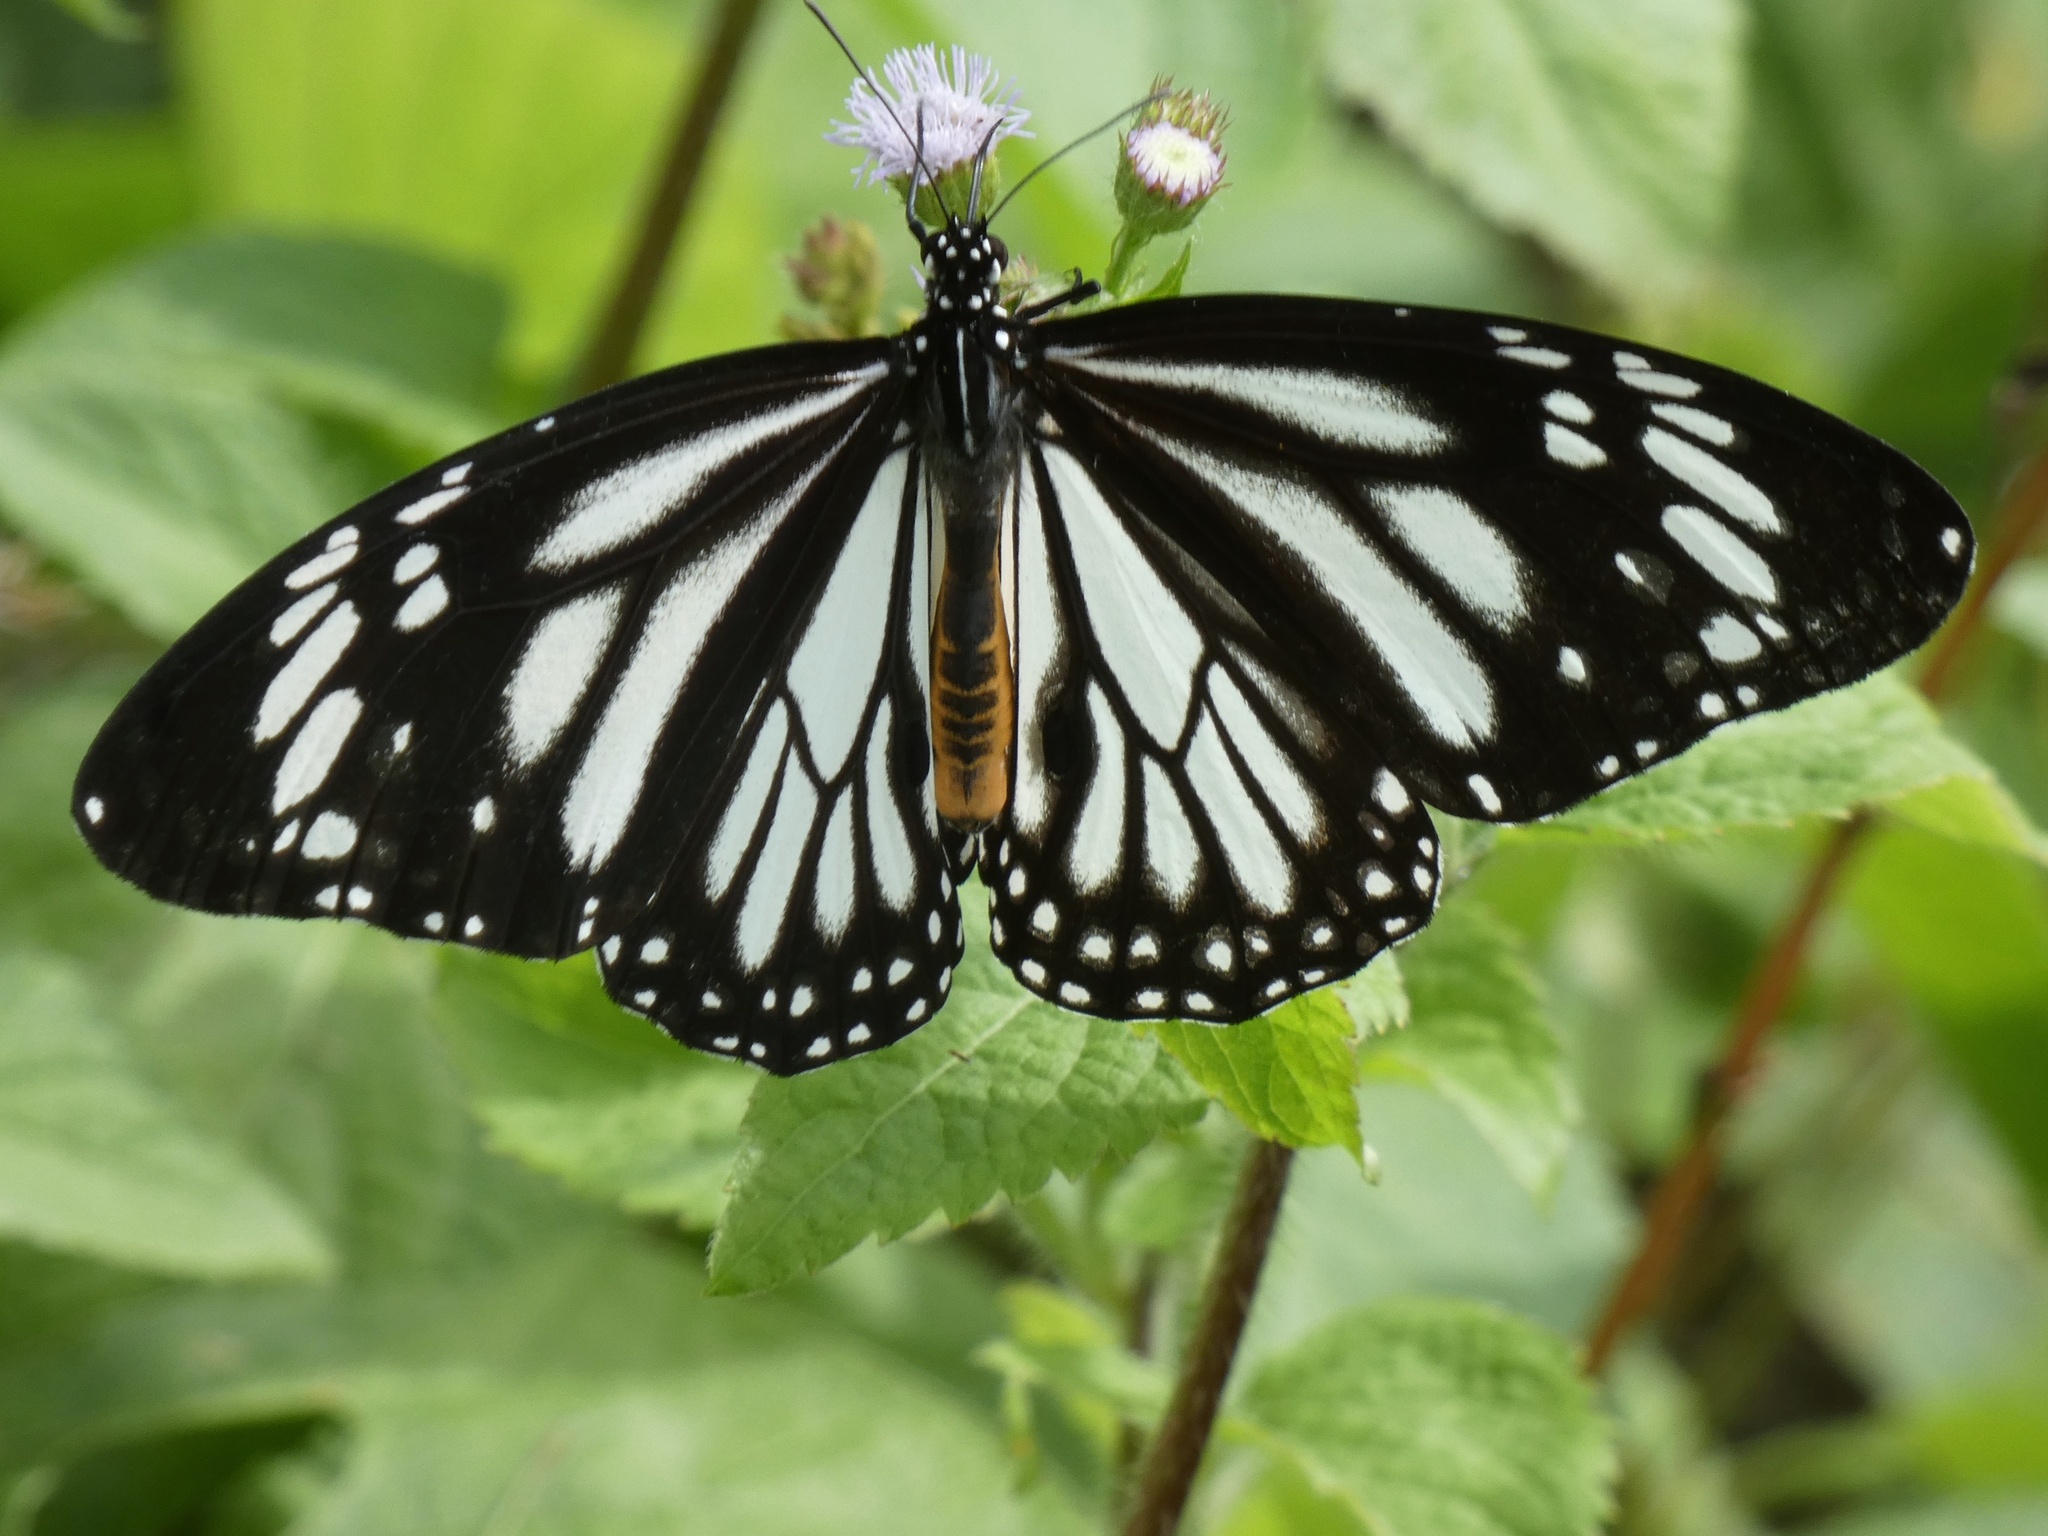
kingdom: Animalia
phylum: Arthropoda
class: Insecta
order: Lepidoptera
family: Nymphalidae
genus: Danaus
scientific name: Danaus melanippus
